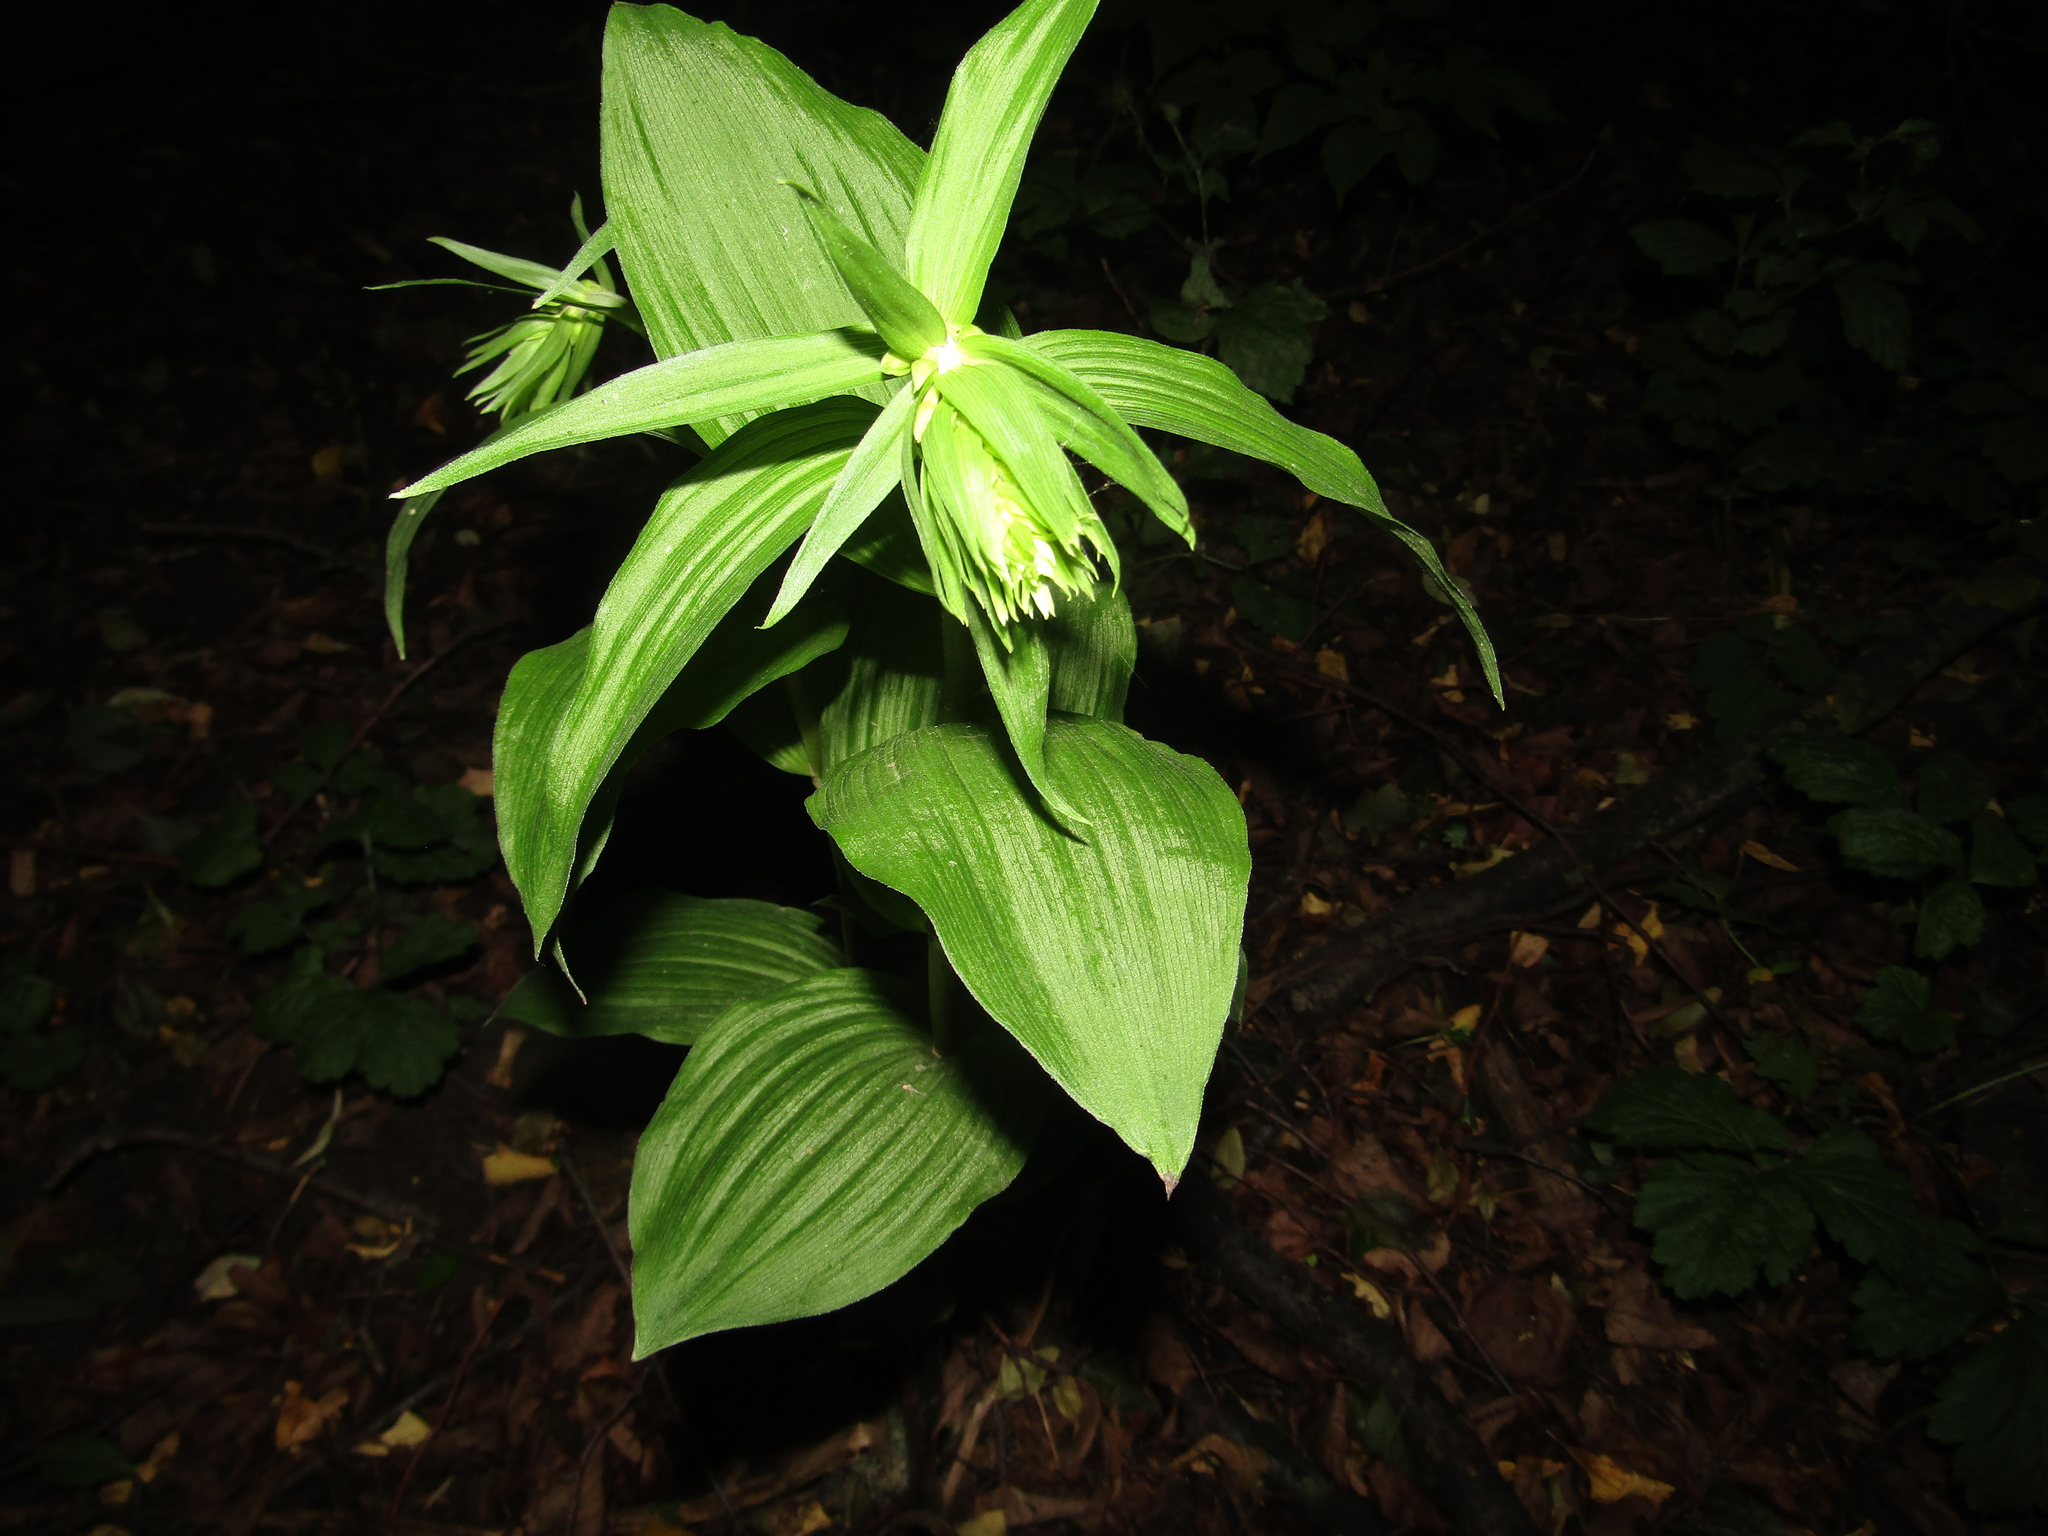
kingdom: Plantae
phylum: Tracheophyta
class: Liliopsida
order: Asparagales
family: Orchidaceae
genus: Epipactis
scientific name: Epipactis helleborine
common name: Broad-leaved helleborine
